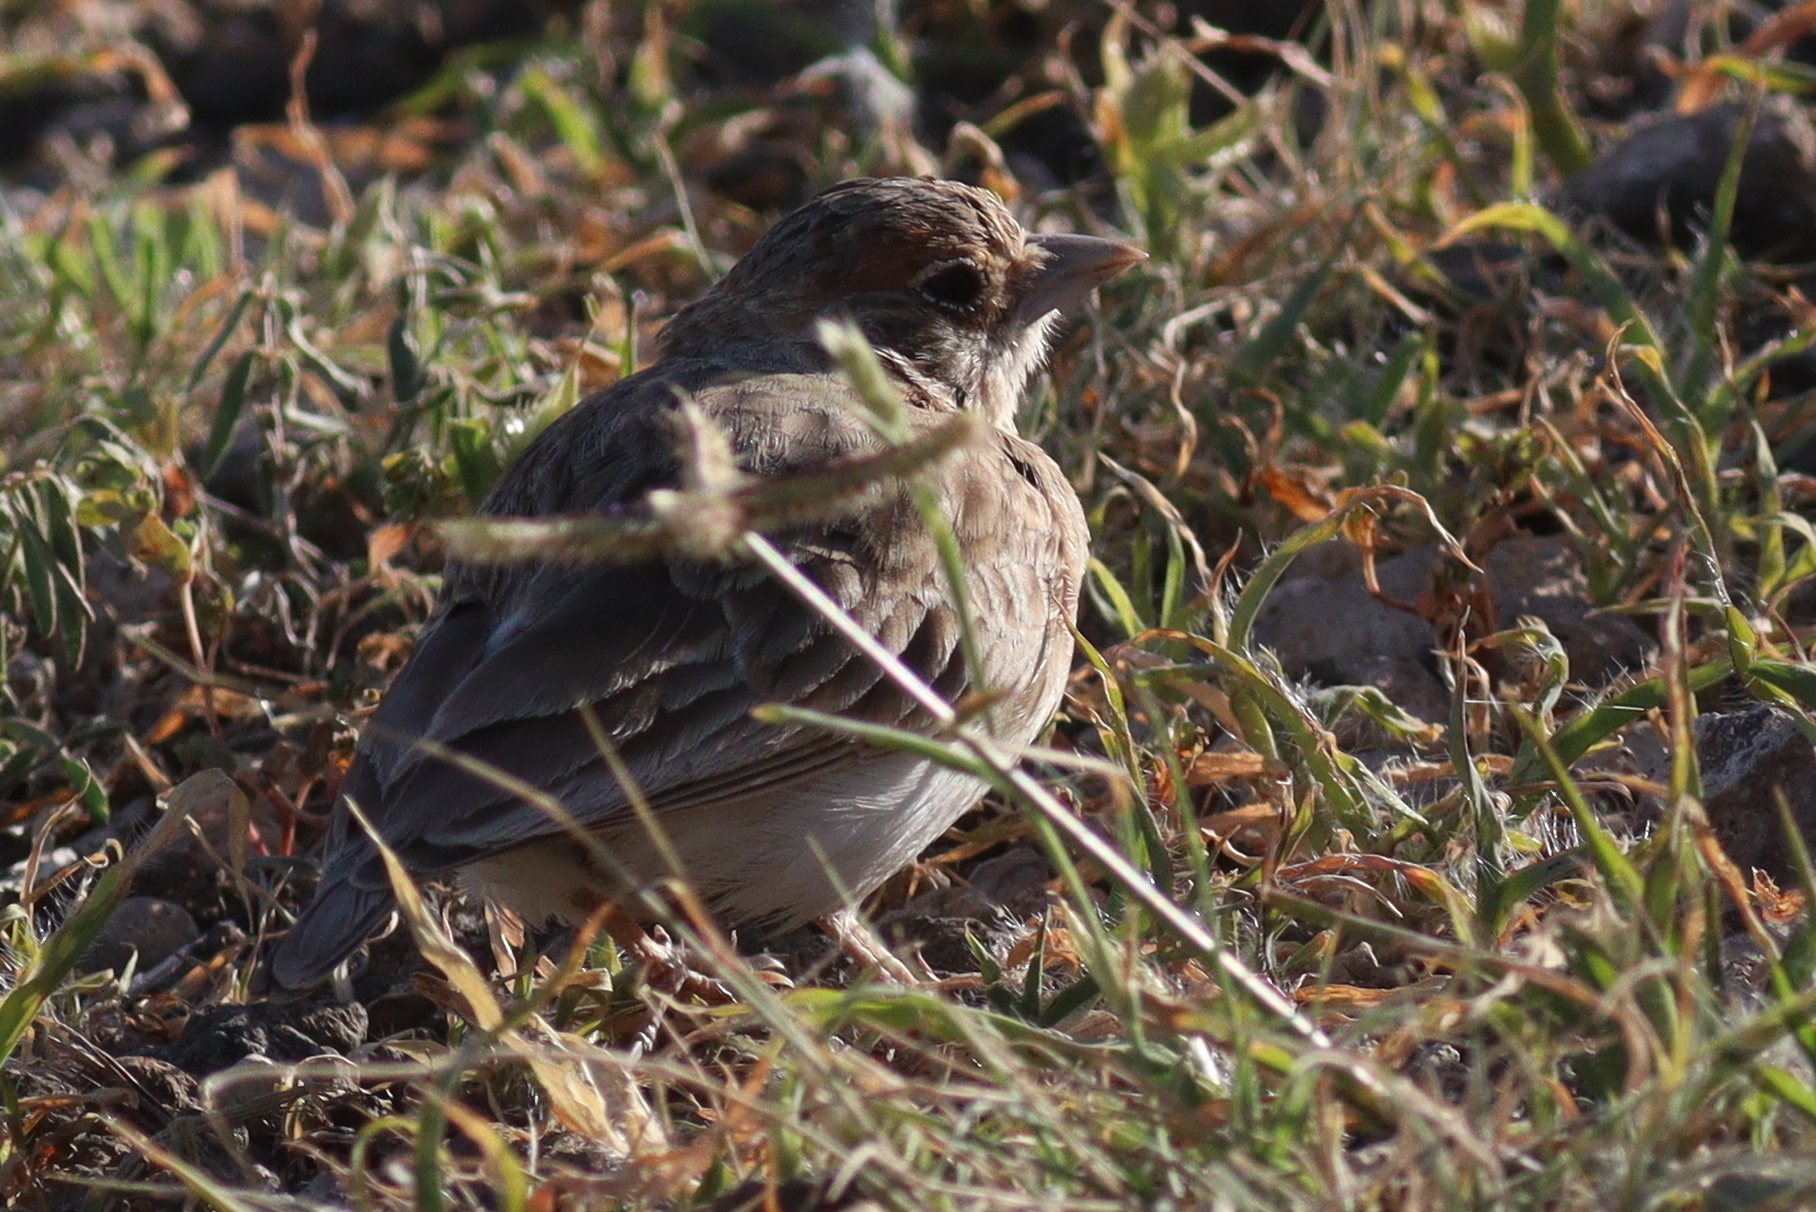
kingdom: Animalia
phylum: Chordata
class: Aves
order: Passeriformes
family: Alaudidae
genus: Eremopterix
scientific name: Eremopterix leucopareia
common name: Fischer's sparrow-lark
